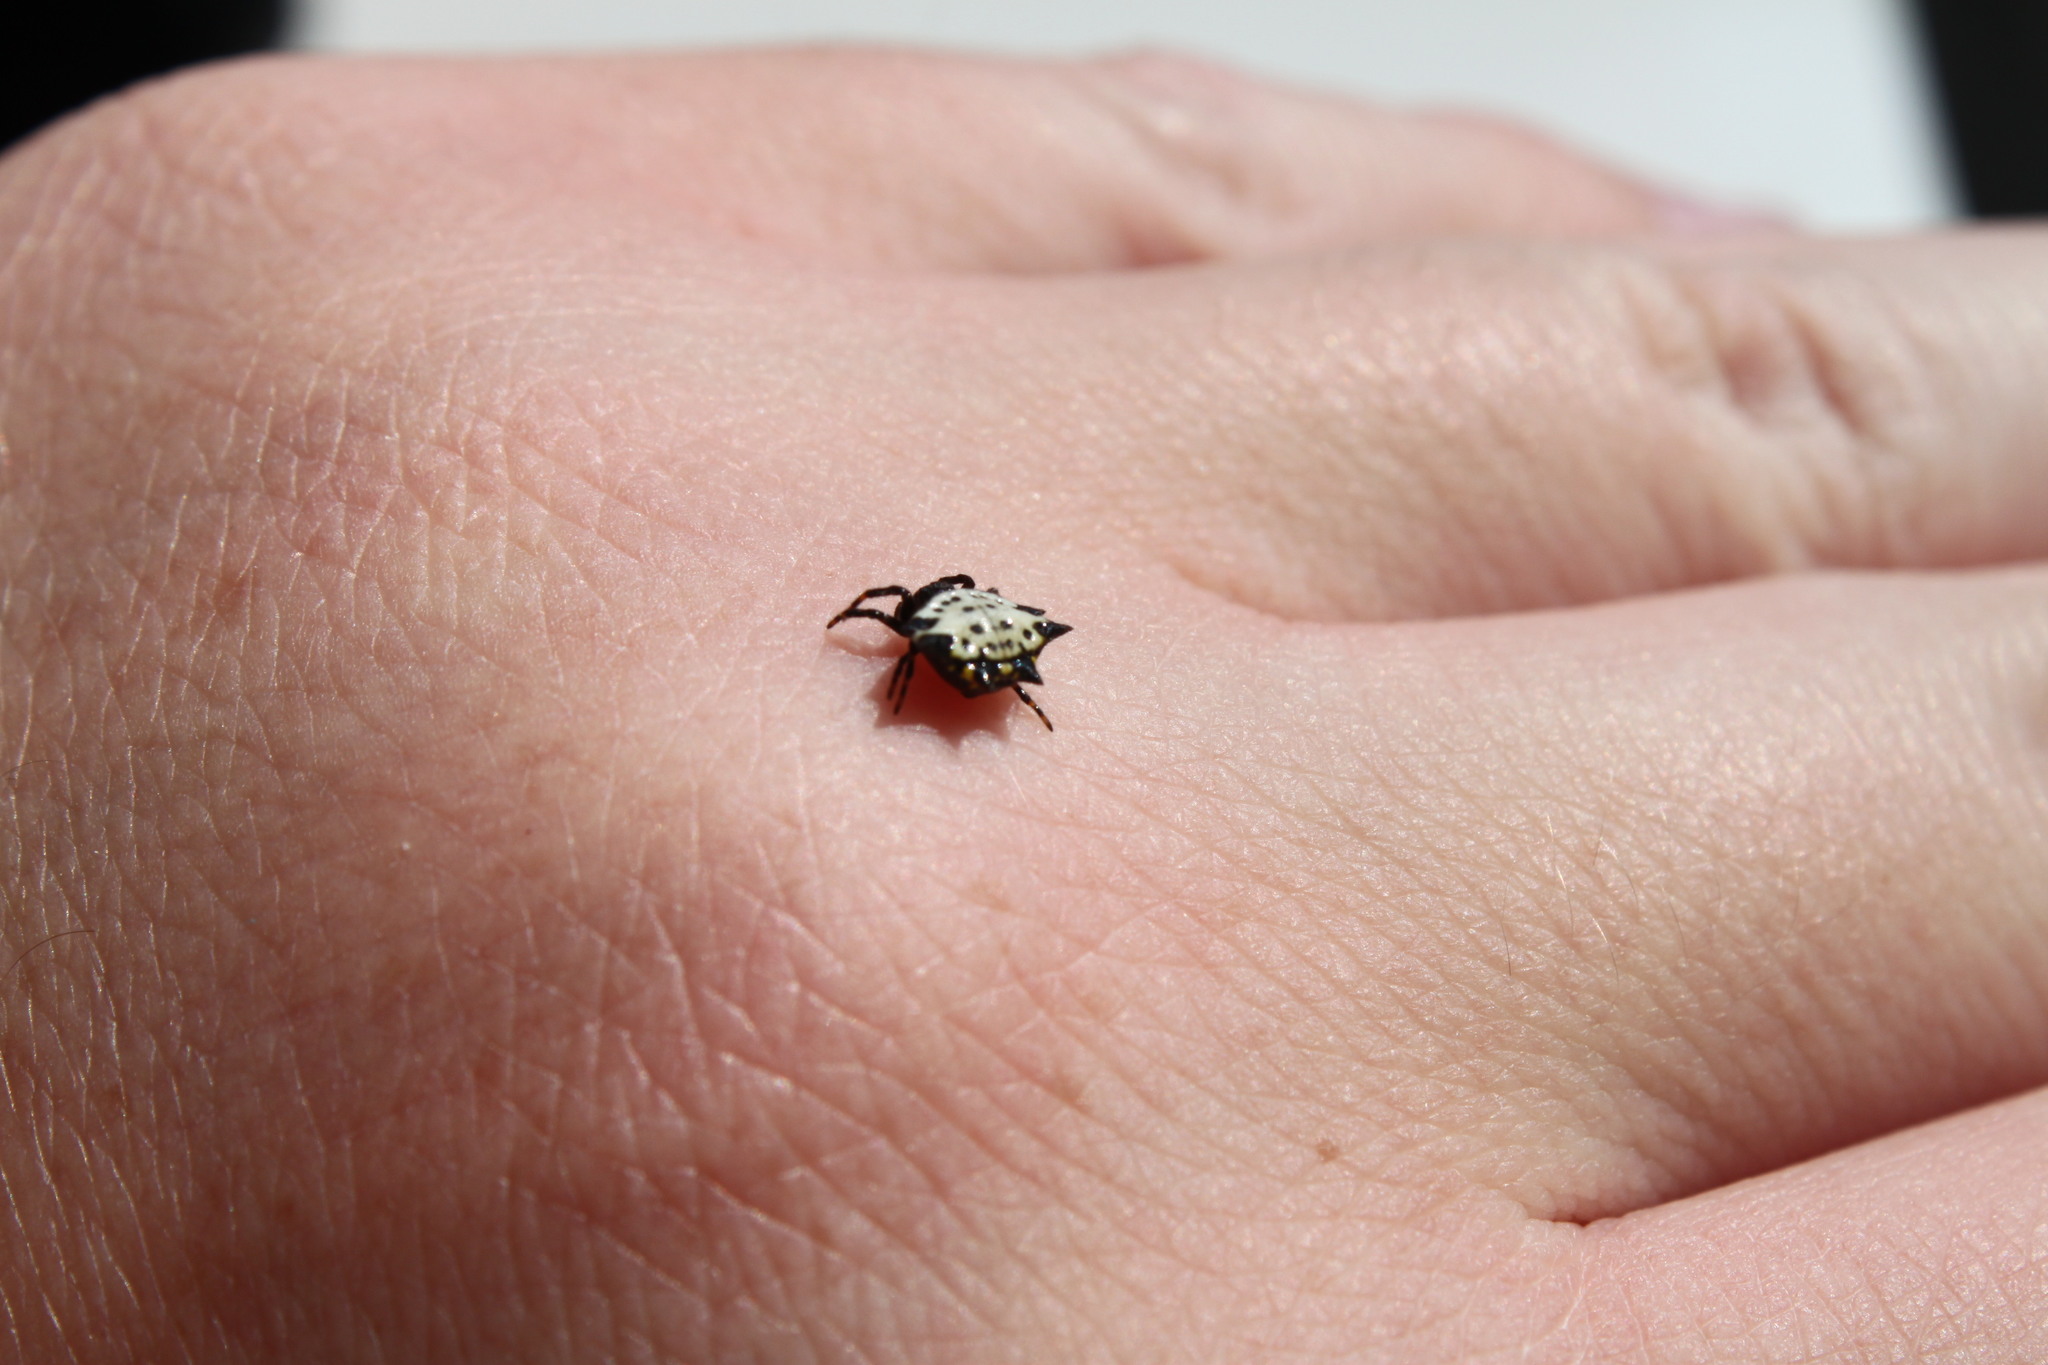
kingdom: Animalia
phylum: Arthropoda
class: Arachnida
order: Araneae
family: Araneidae
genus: Gasteracantha
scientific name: Gasteracantha cancriformis
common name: Orb weavers
